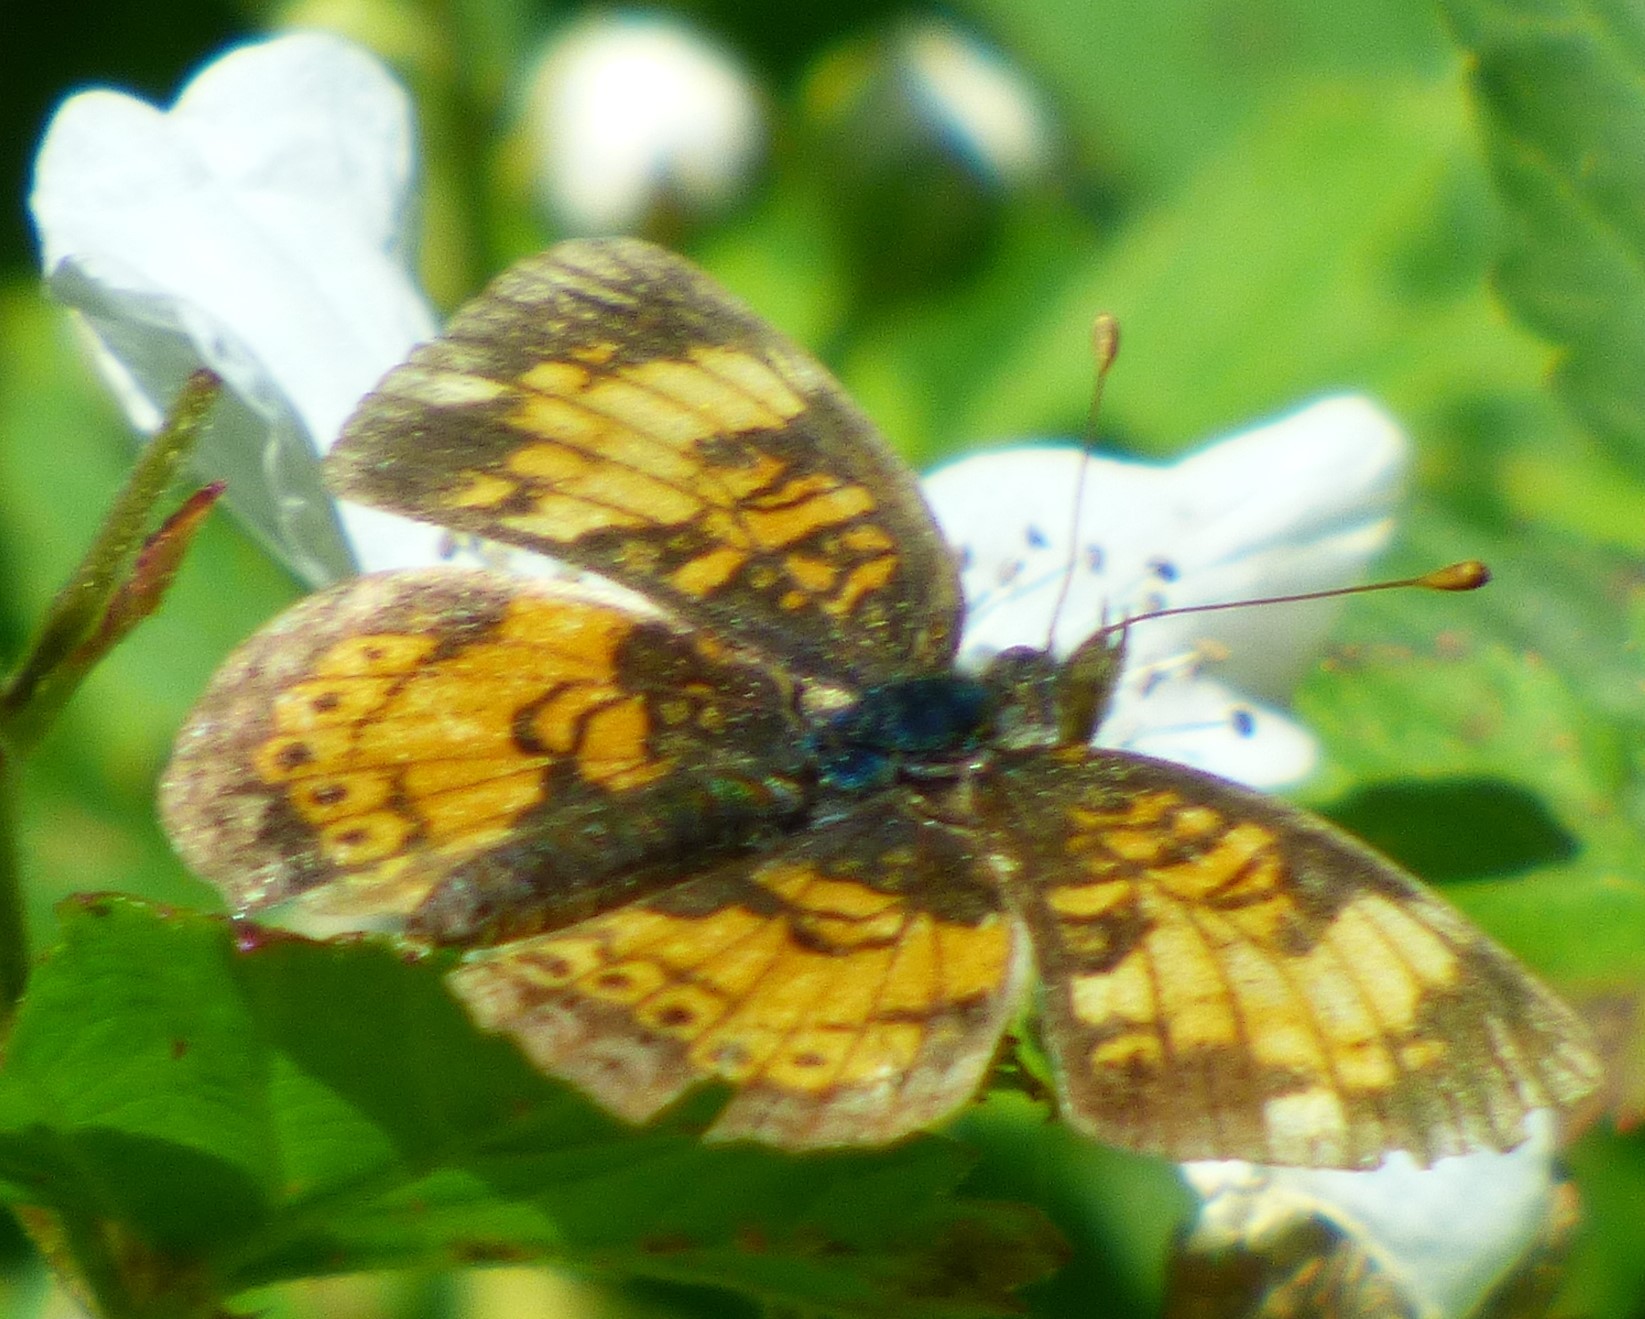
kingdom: Animalia
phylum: Arthropoda
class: Insecta
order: Lepidoptera
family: Nymphalidae
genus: Phyciodes
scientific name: Phyciodes tharos
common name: Pearl crescent
